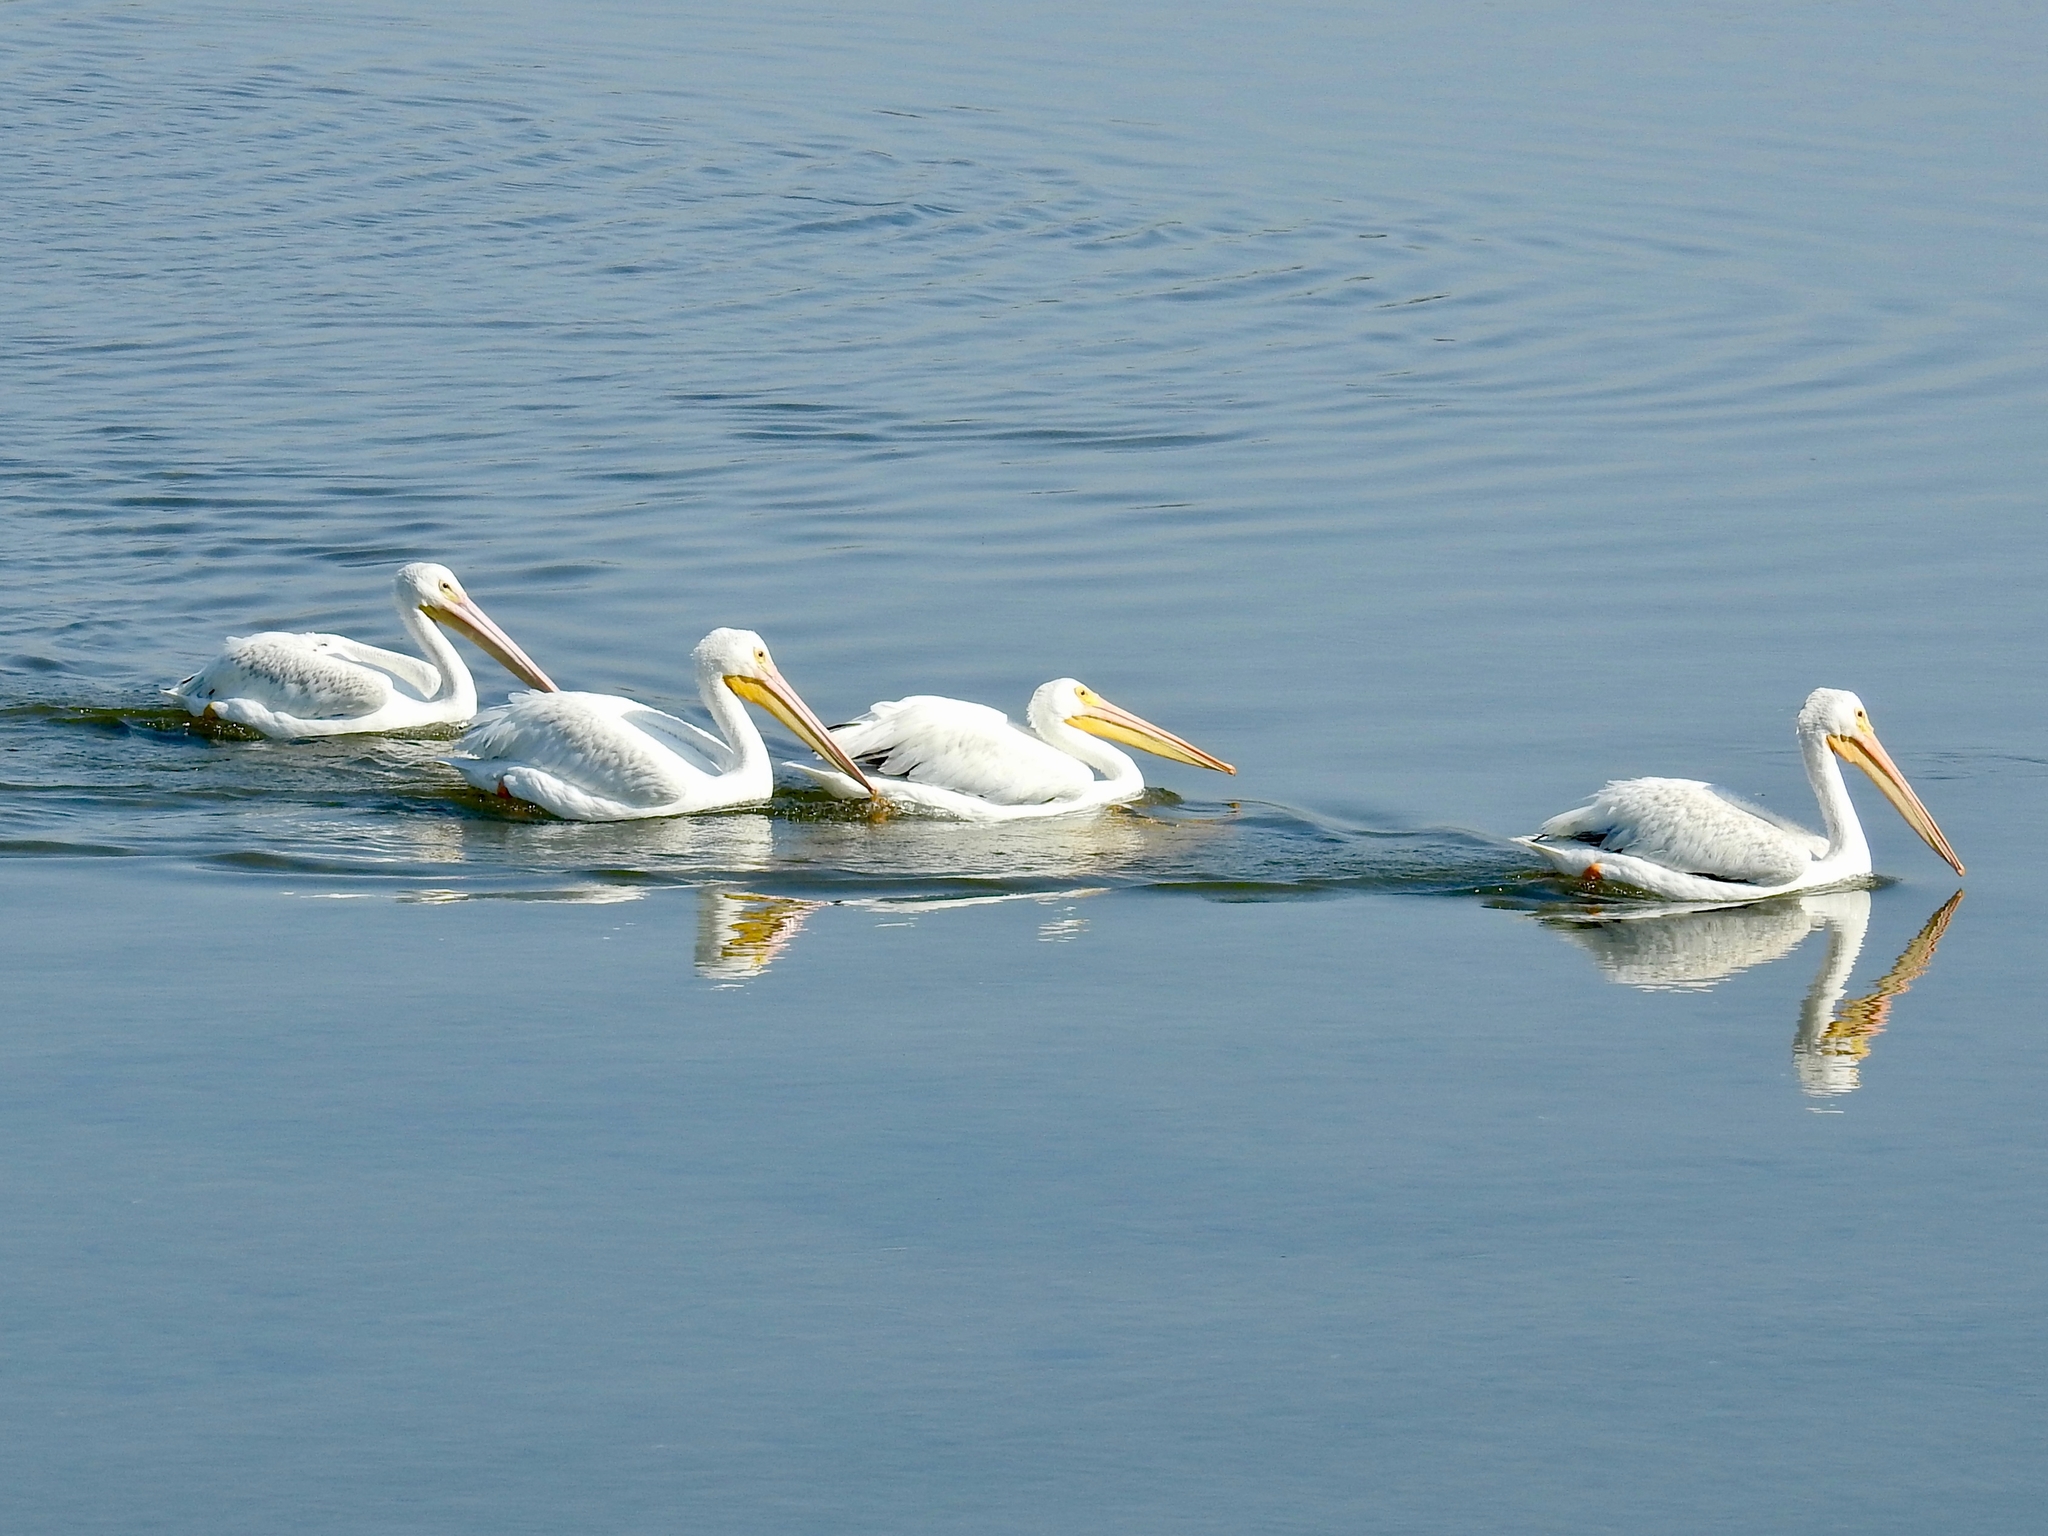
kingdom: Animalia
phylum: Chordata
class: Aves
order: Pelecaniformes
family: Pelecanidae
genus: Pelecanus
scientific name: Pelecanus erythrorhynchos
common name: American white pelican
